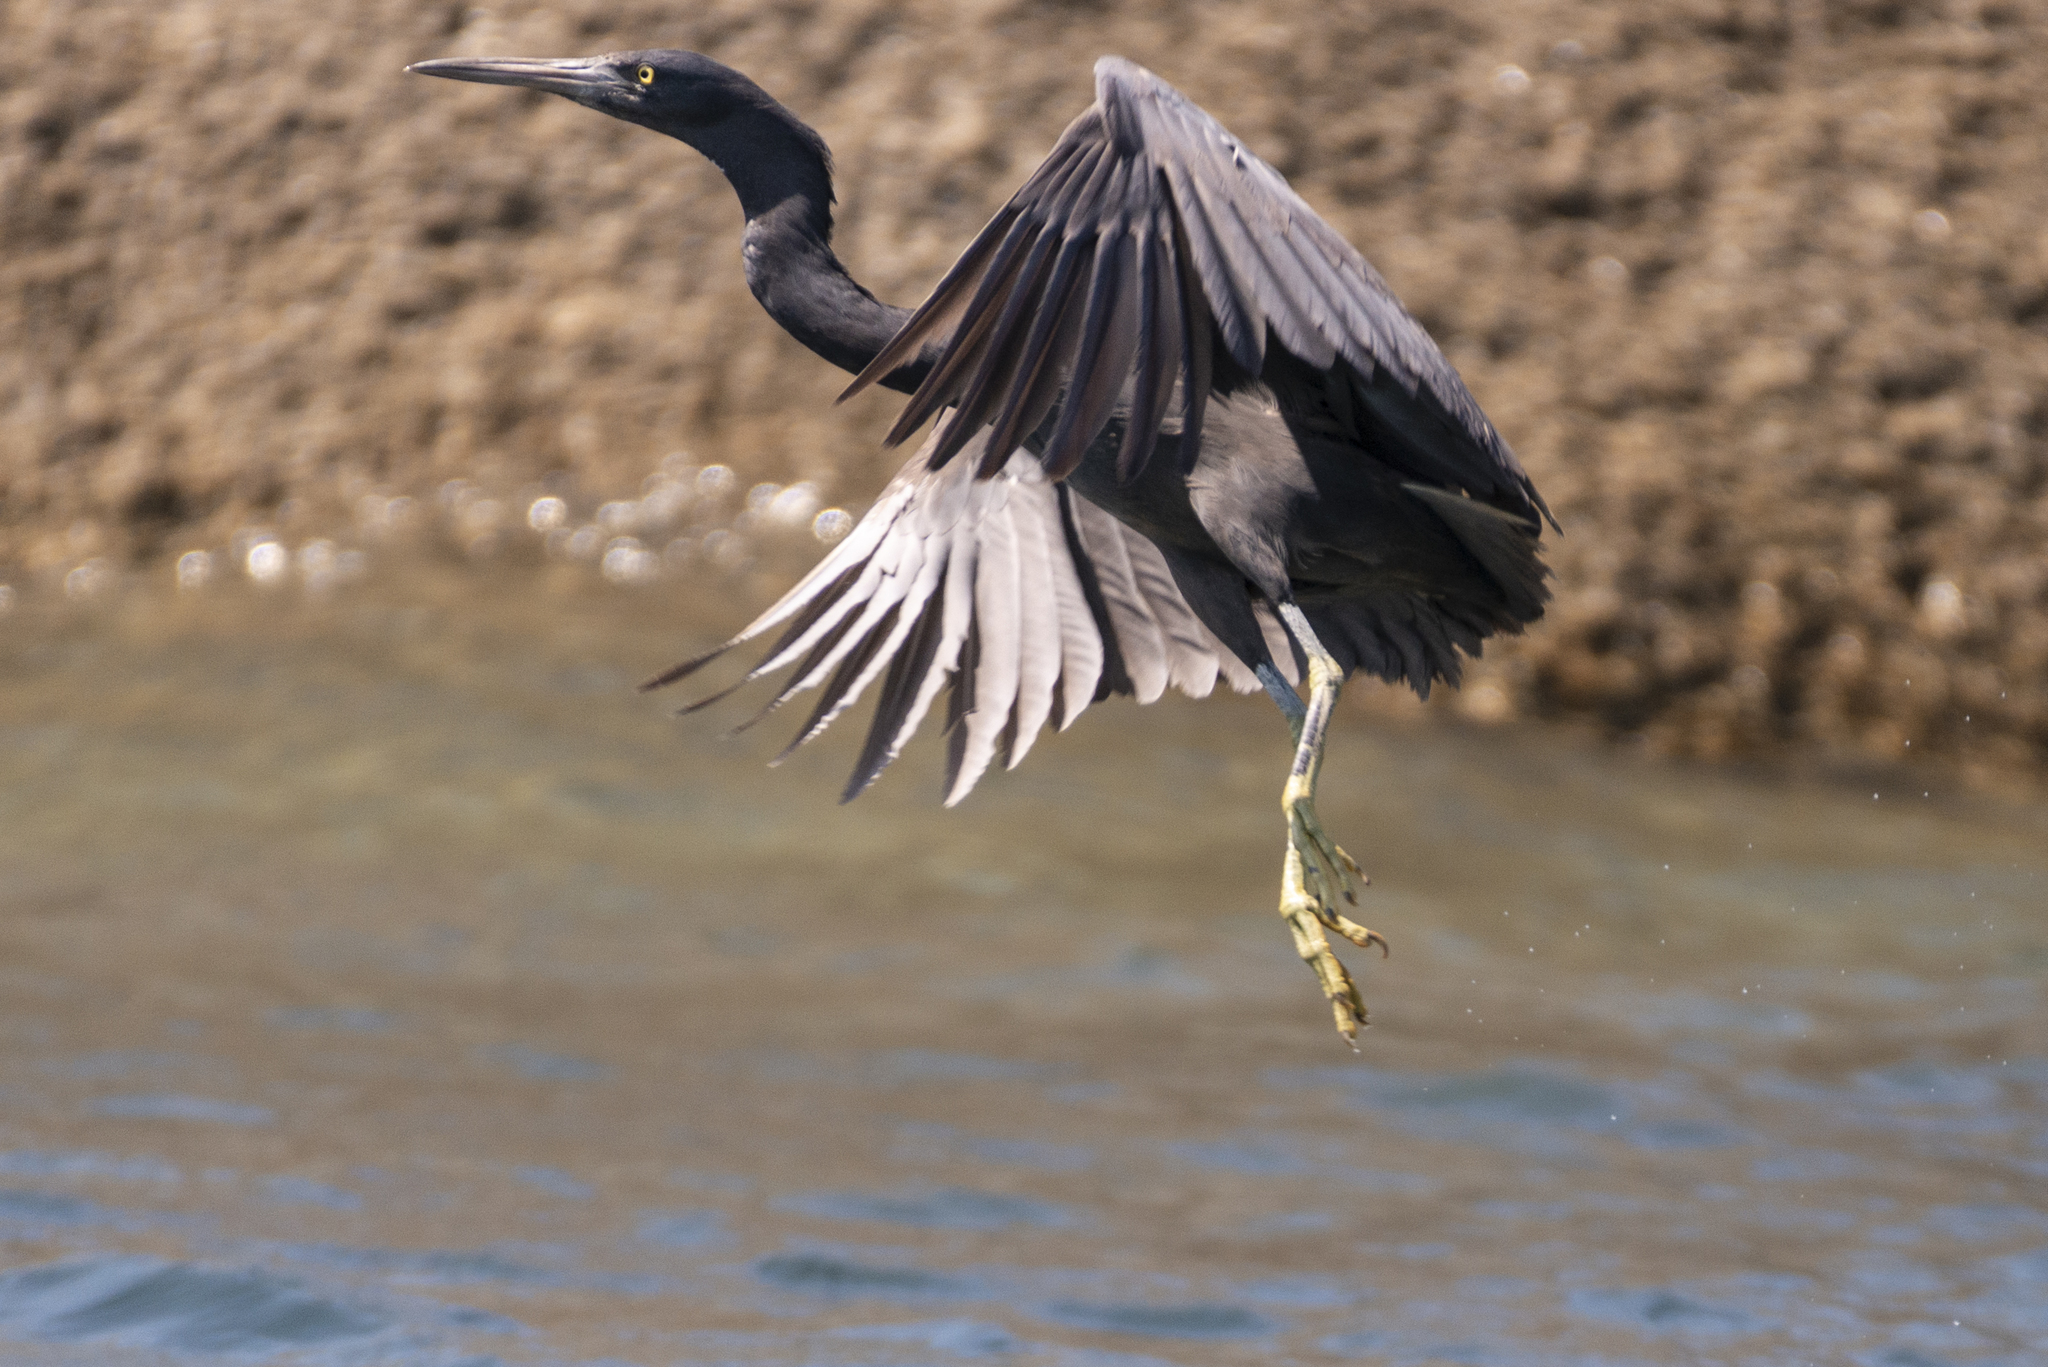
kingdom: Animalia
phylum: Chordata
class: Aves
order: Pelecaniformes
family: Ardeidae
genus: Egretta
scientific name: Egretta sacra
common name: Pacific reef heron
